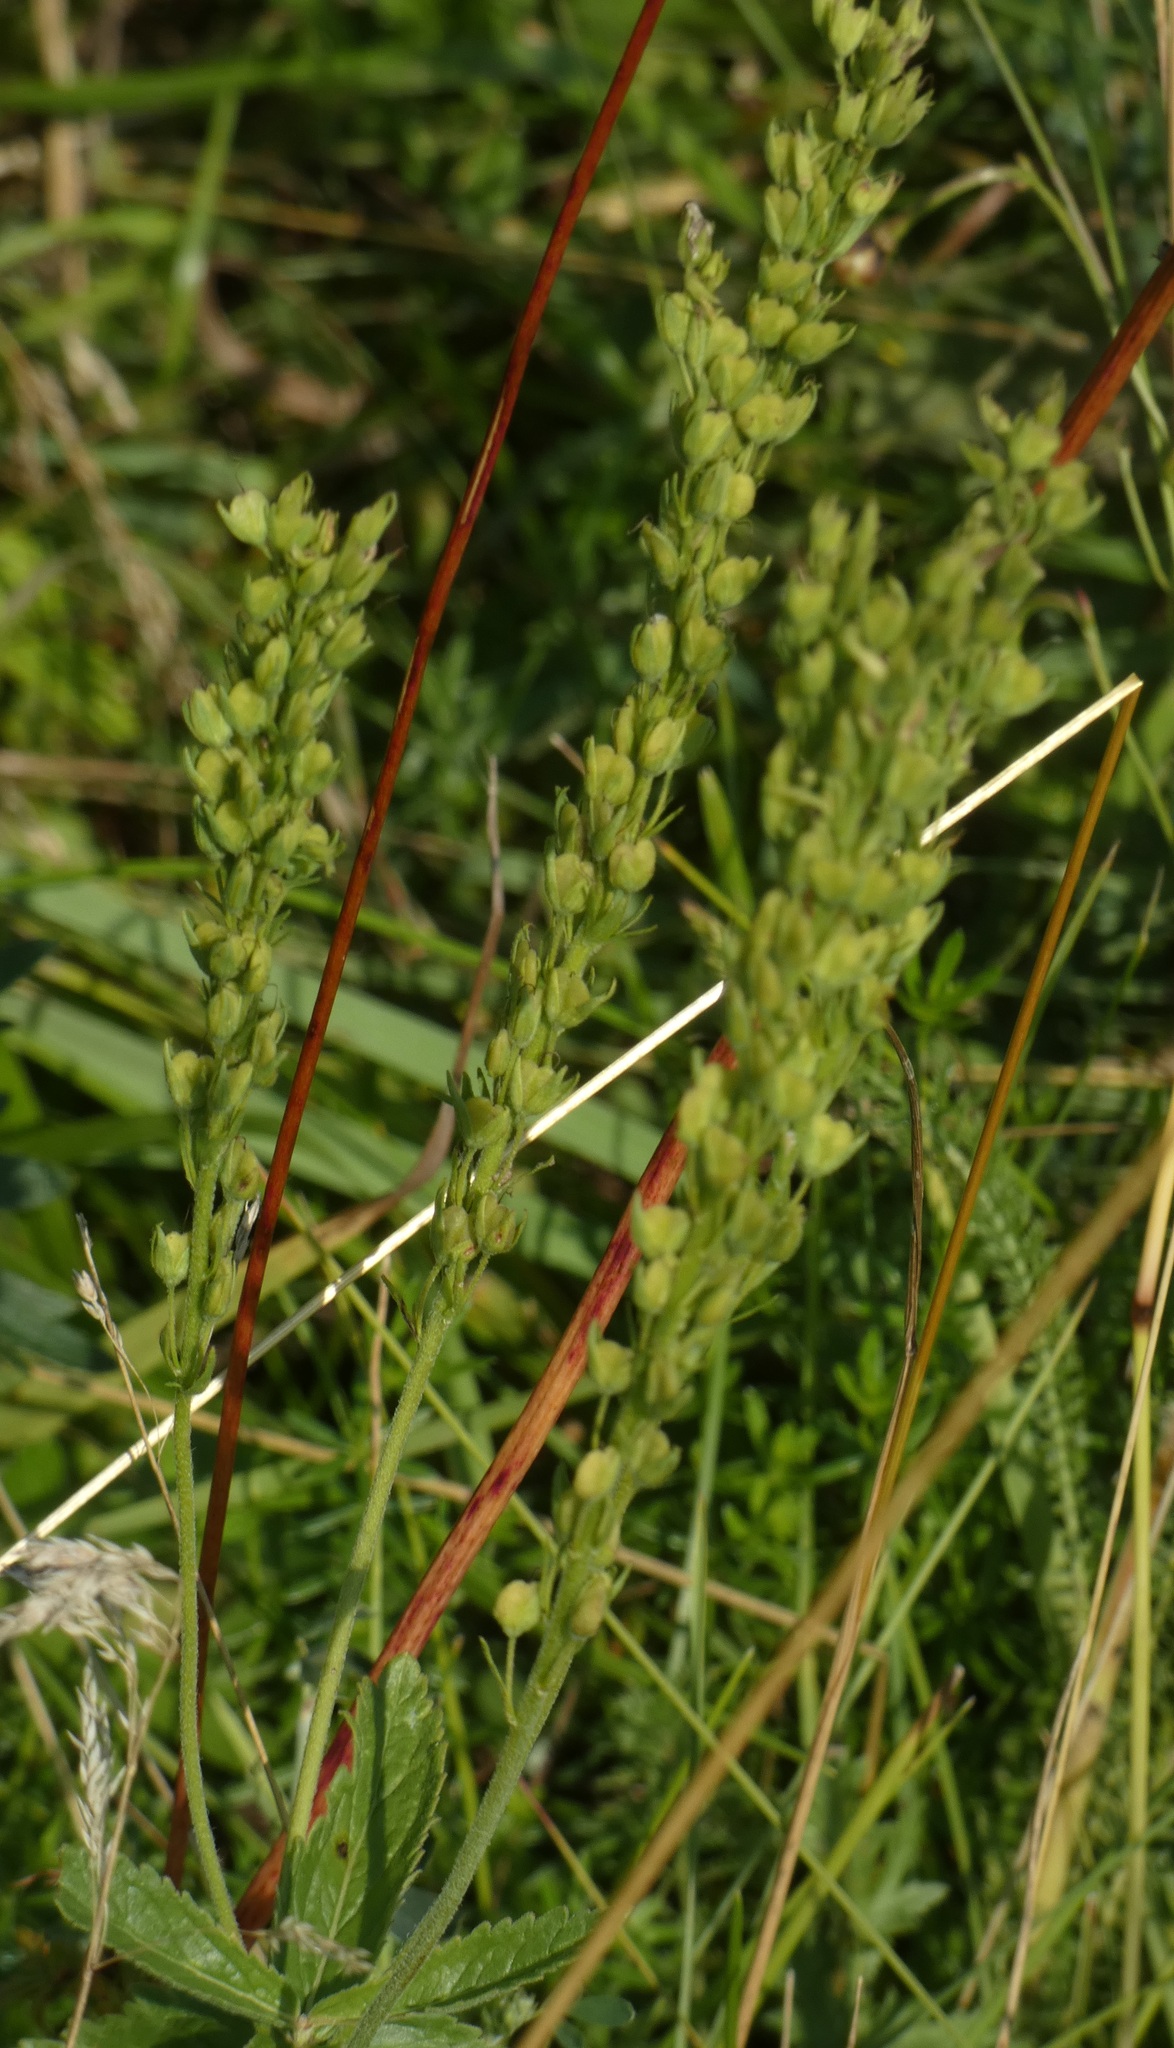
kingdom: Plantae
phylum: Tracheophyta
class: Magnoliopsida
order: Lamiales
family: Plantaginaceae
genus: Veronica
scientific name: Veronica teucrium
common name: Large speedwell
